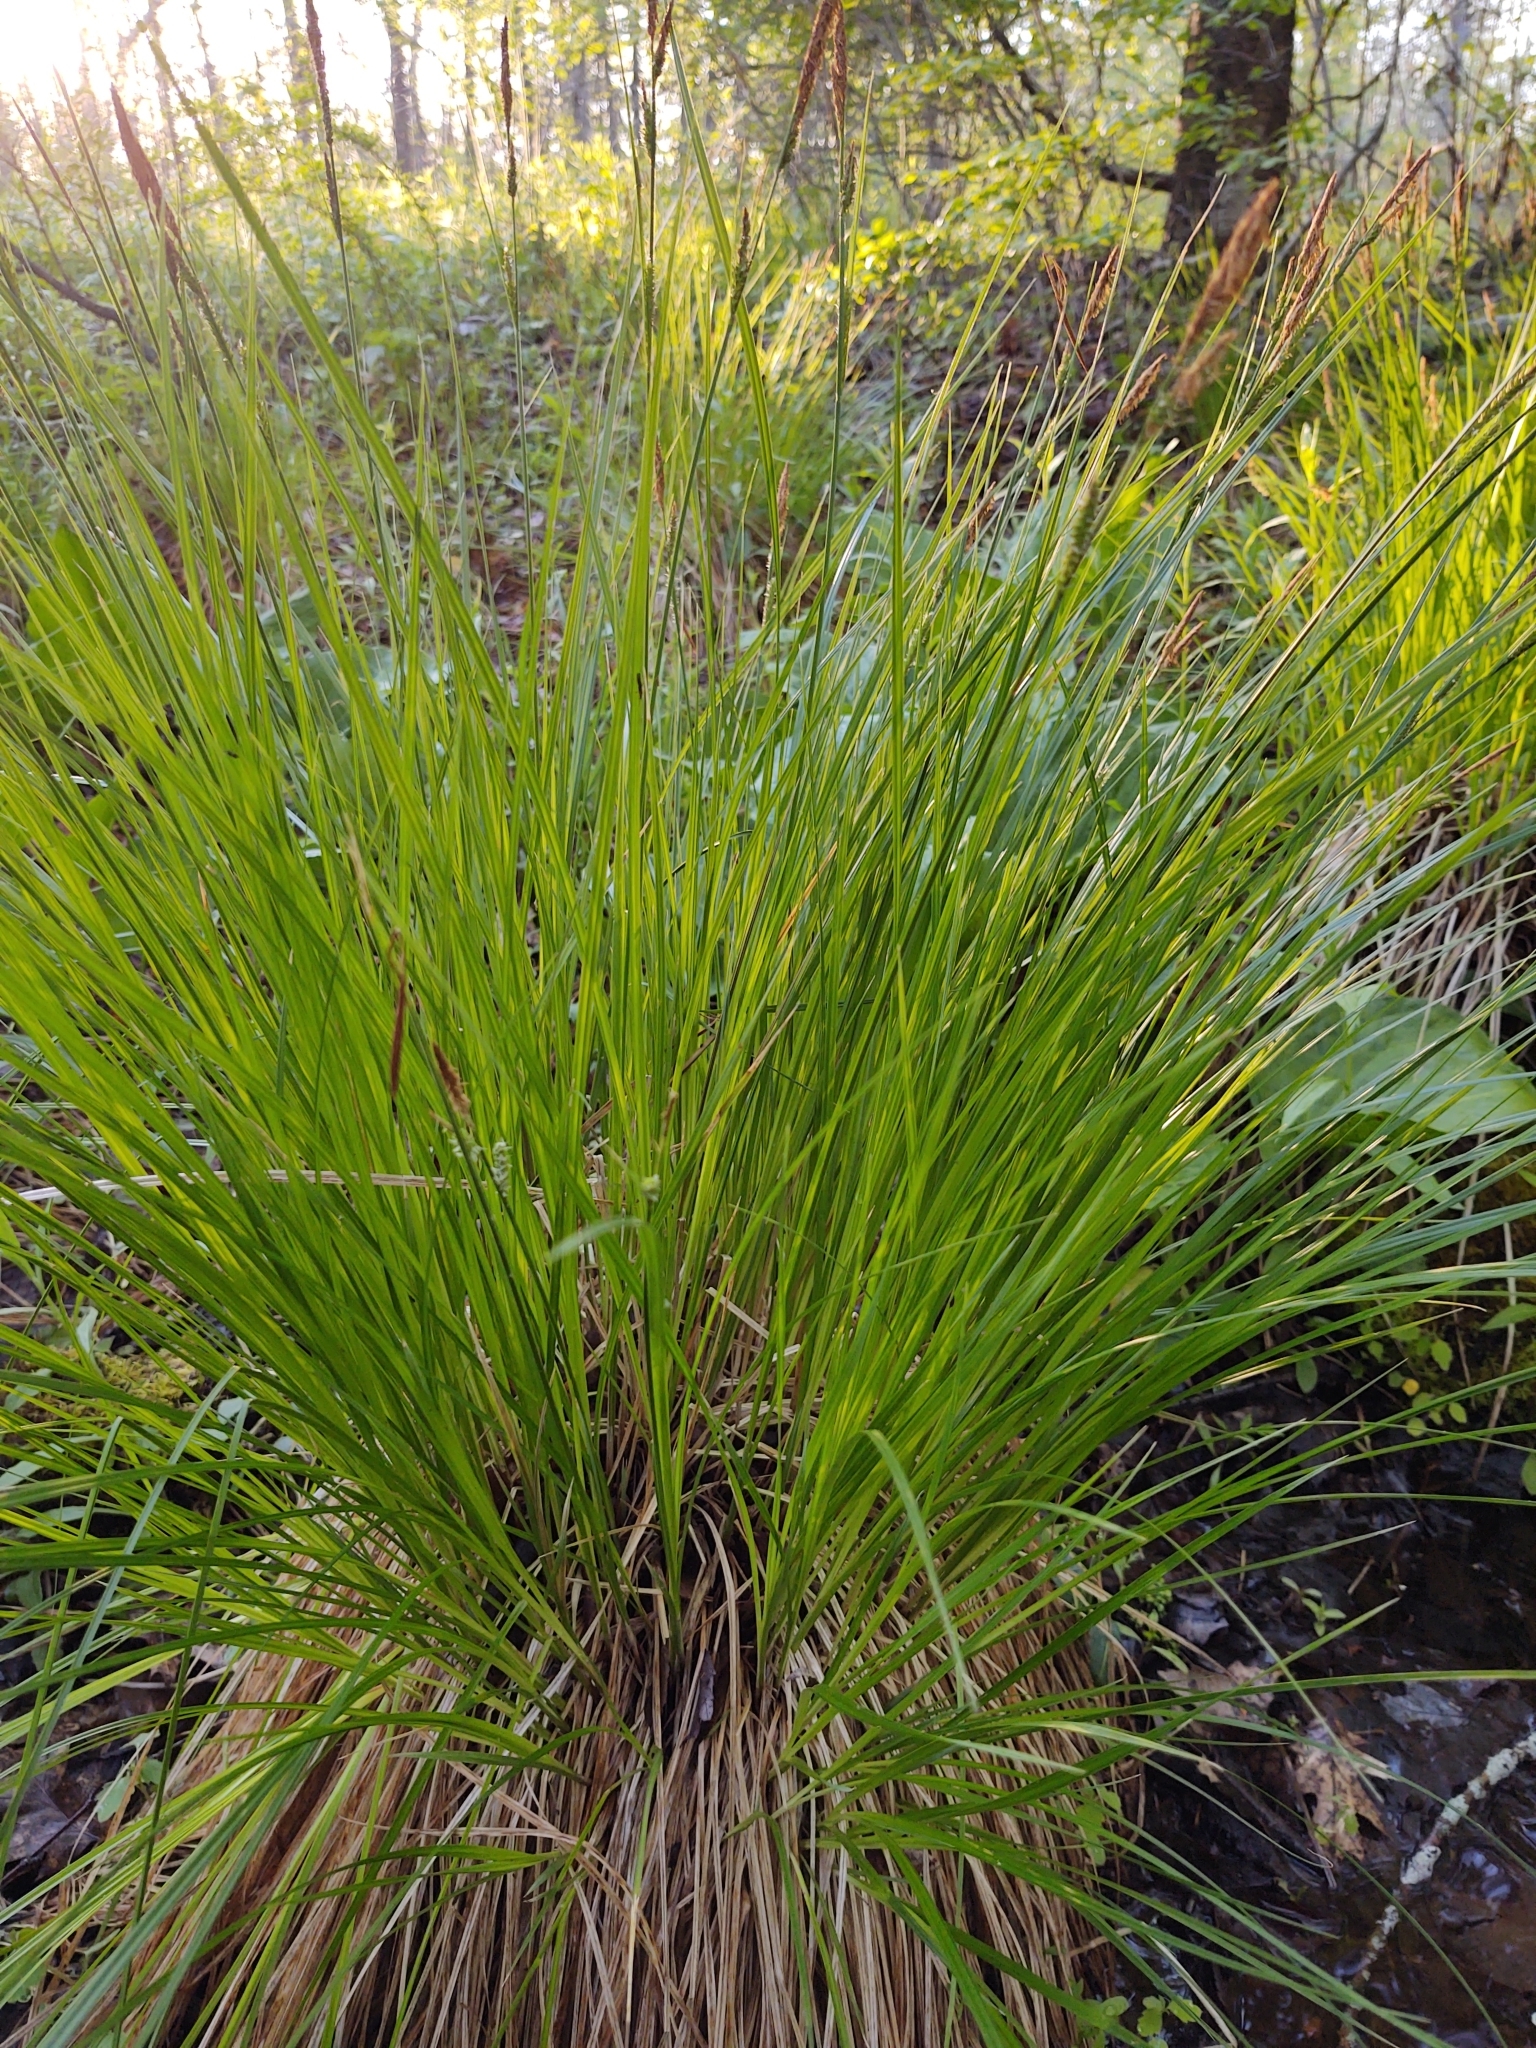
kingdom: Plantae
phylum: Tracheophyta
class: Liliopsida
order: Poales
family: Cyperaceae
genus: Carex
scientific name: Carex stricta
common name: Hummock sedge
